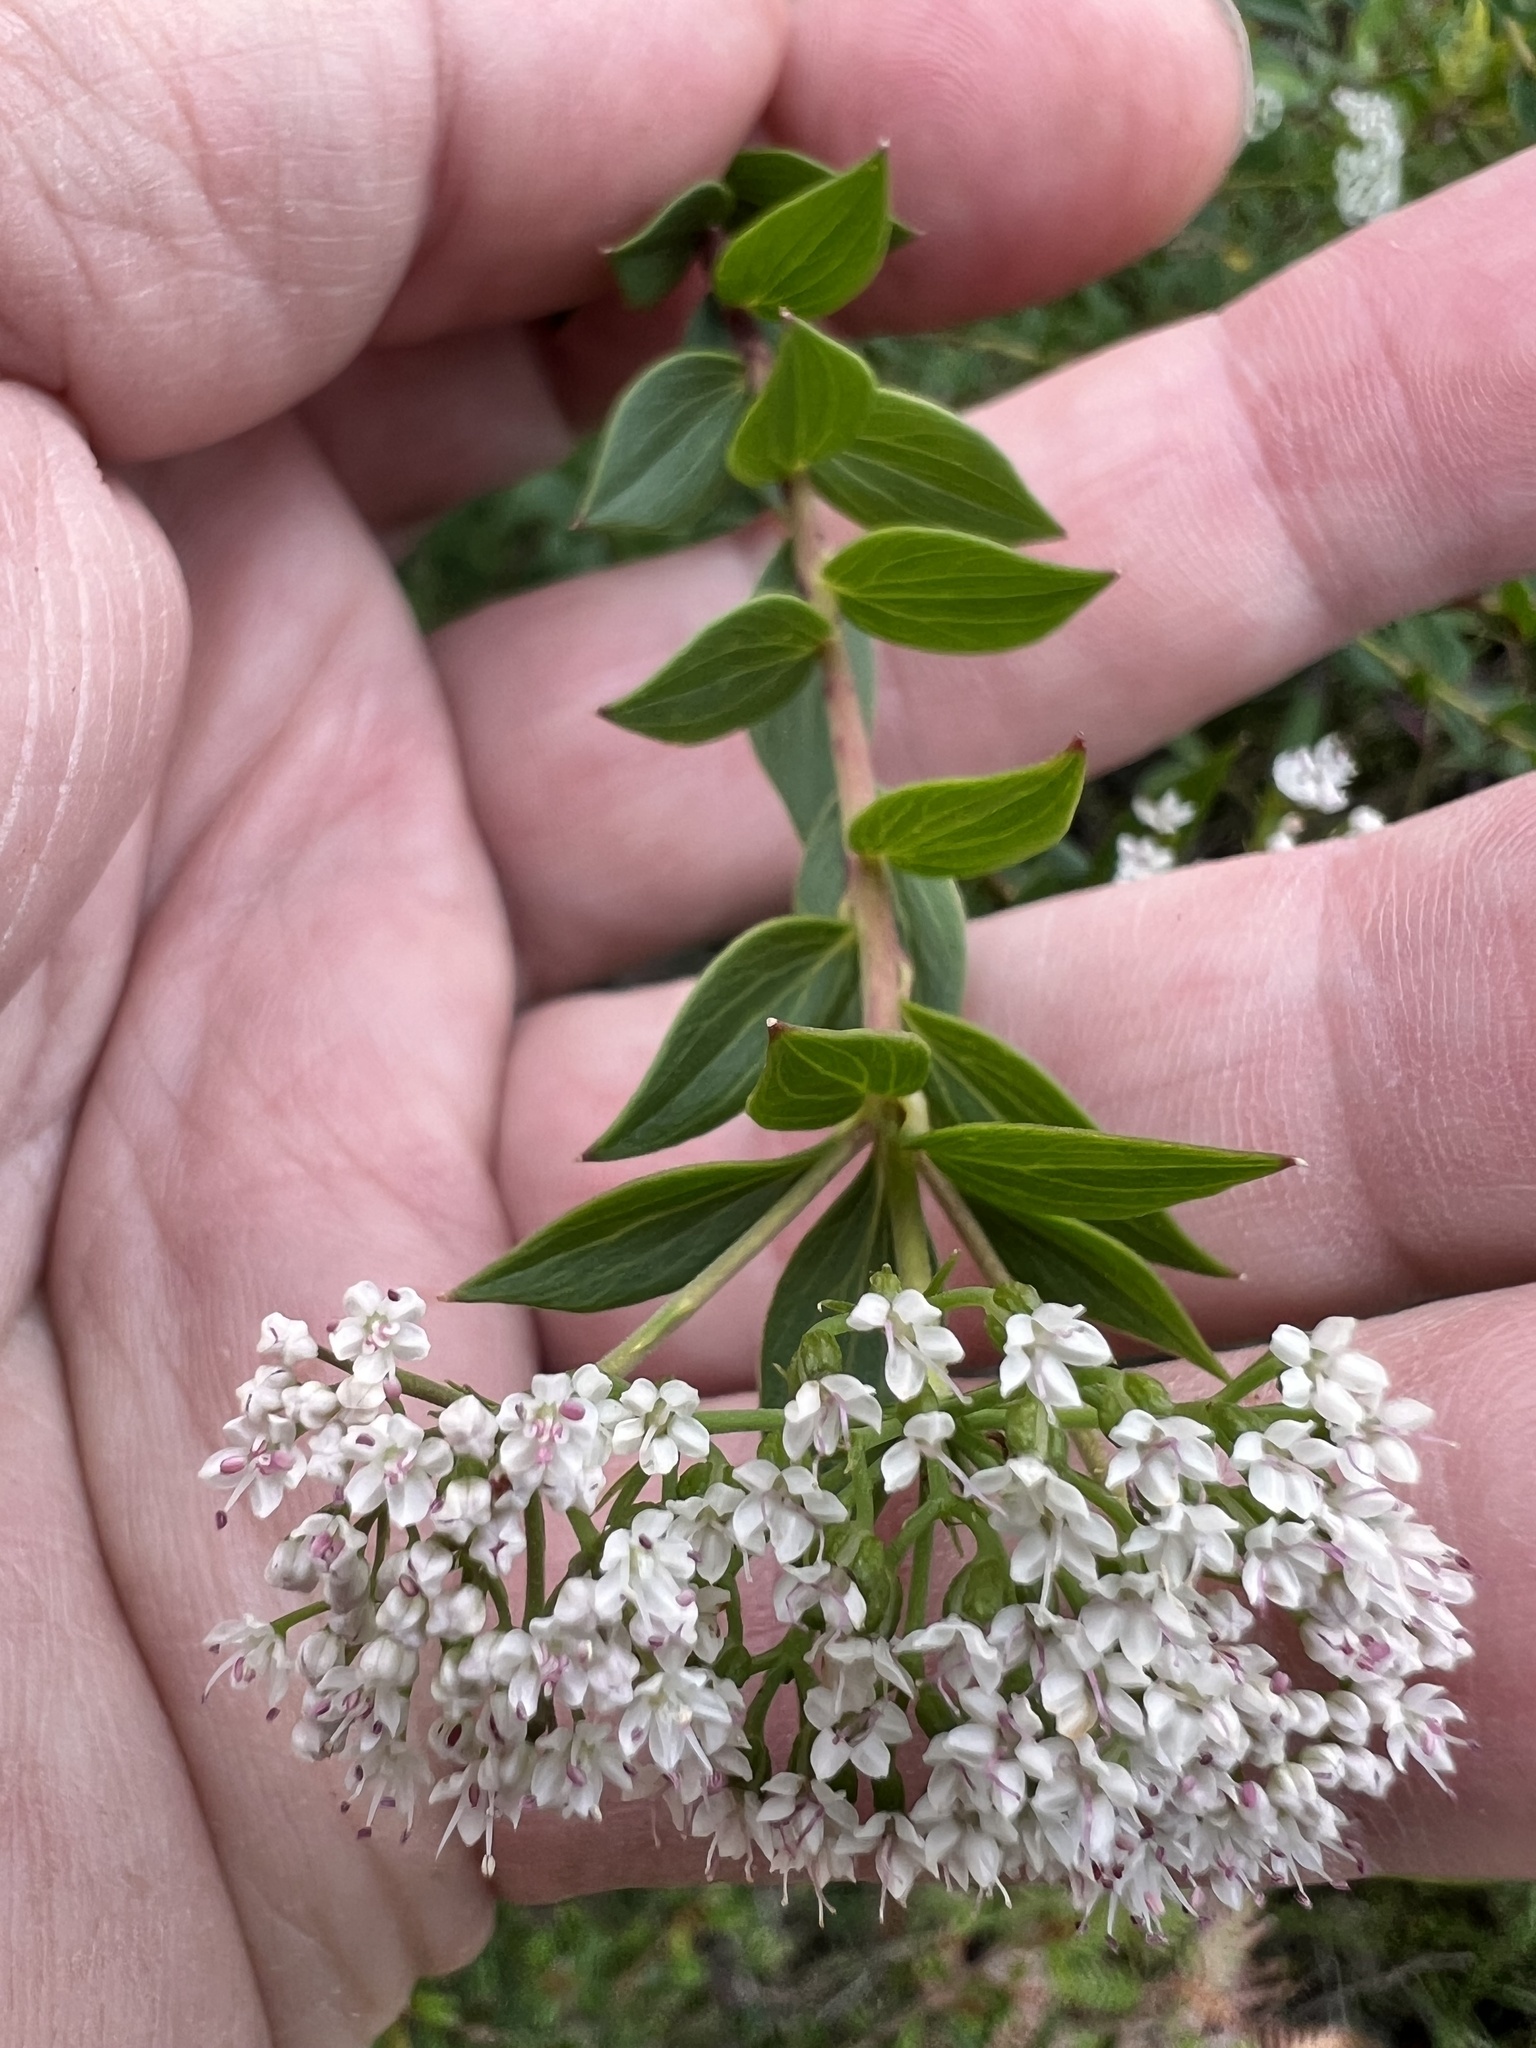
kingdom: Plantae
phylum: Tracheophyta
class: Magnoliopsida
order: Apiales
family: Apiaceae
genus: Platysace
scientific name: Platysace lanceolata
